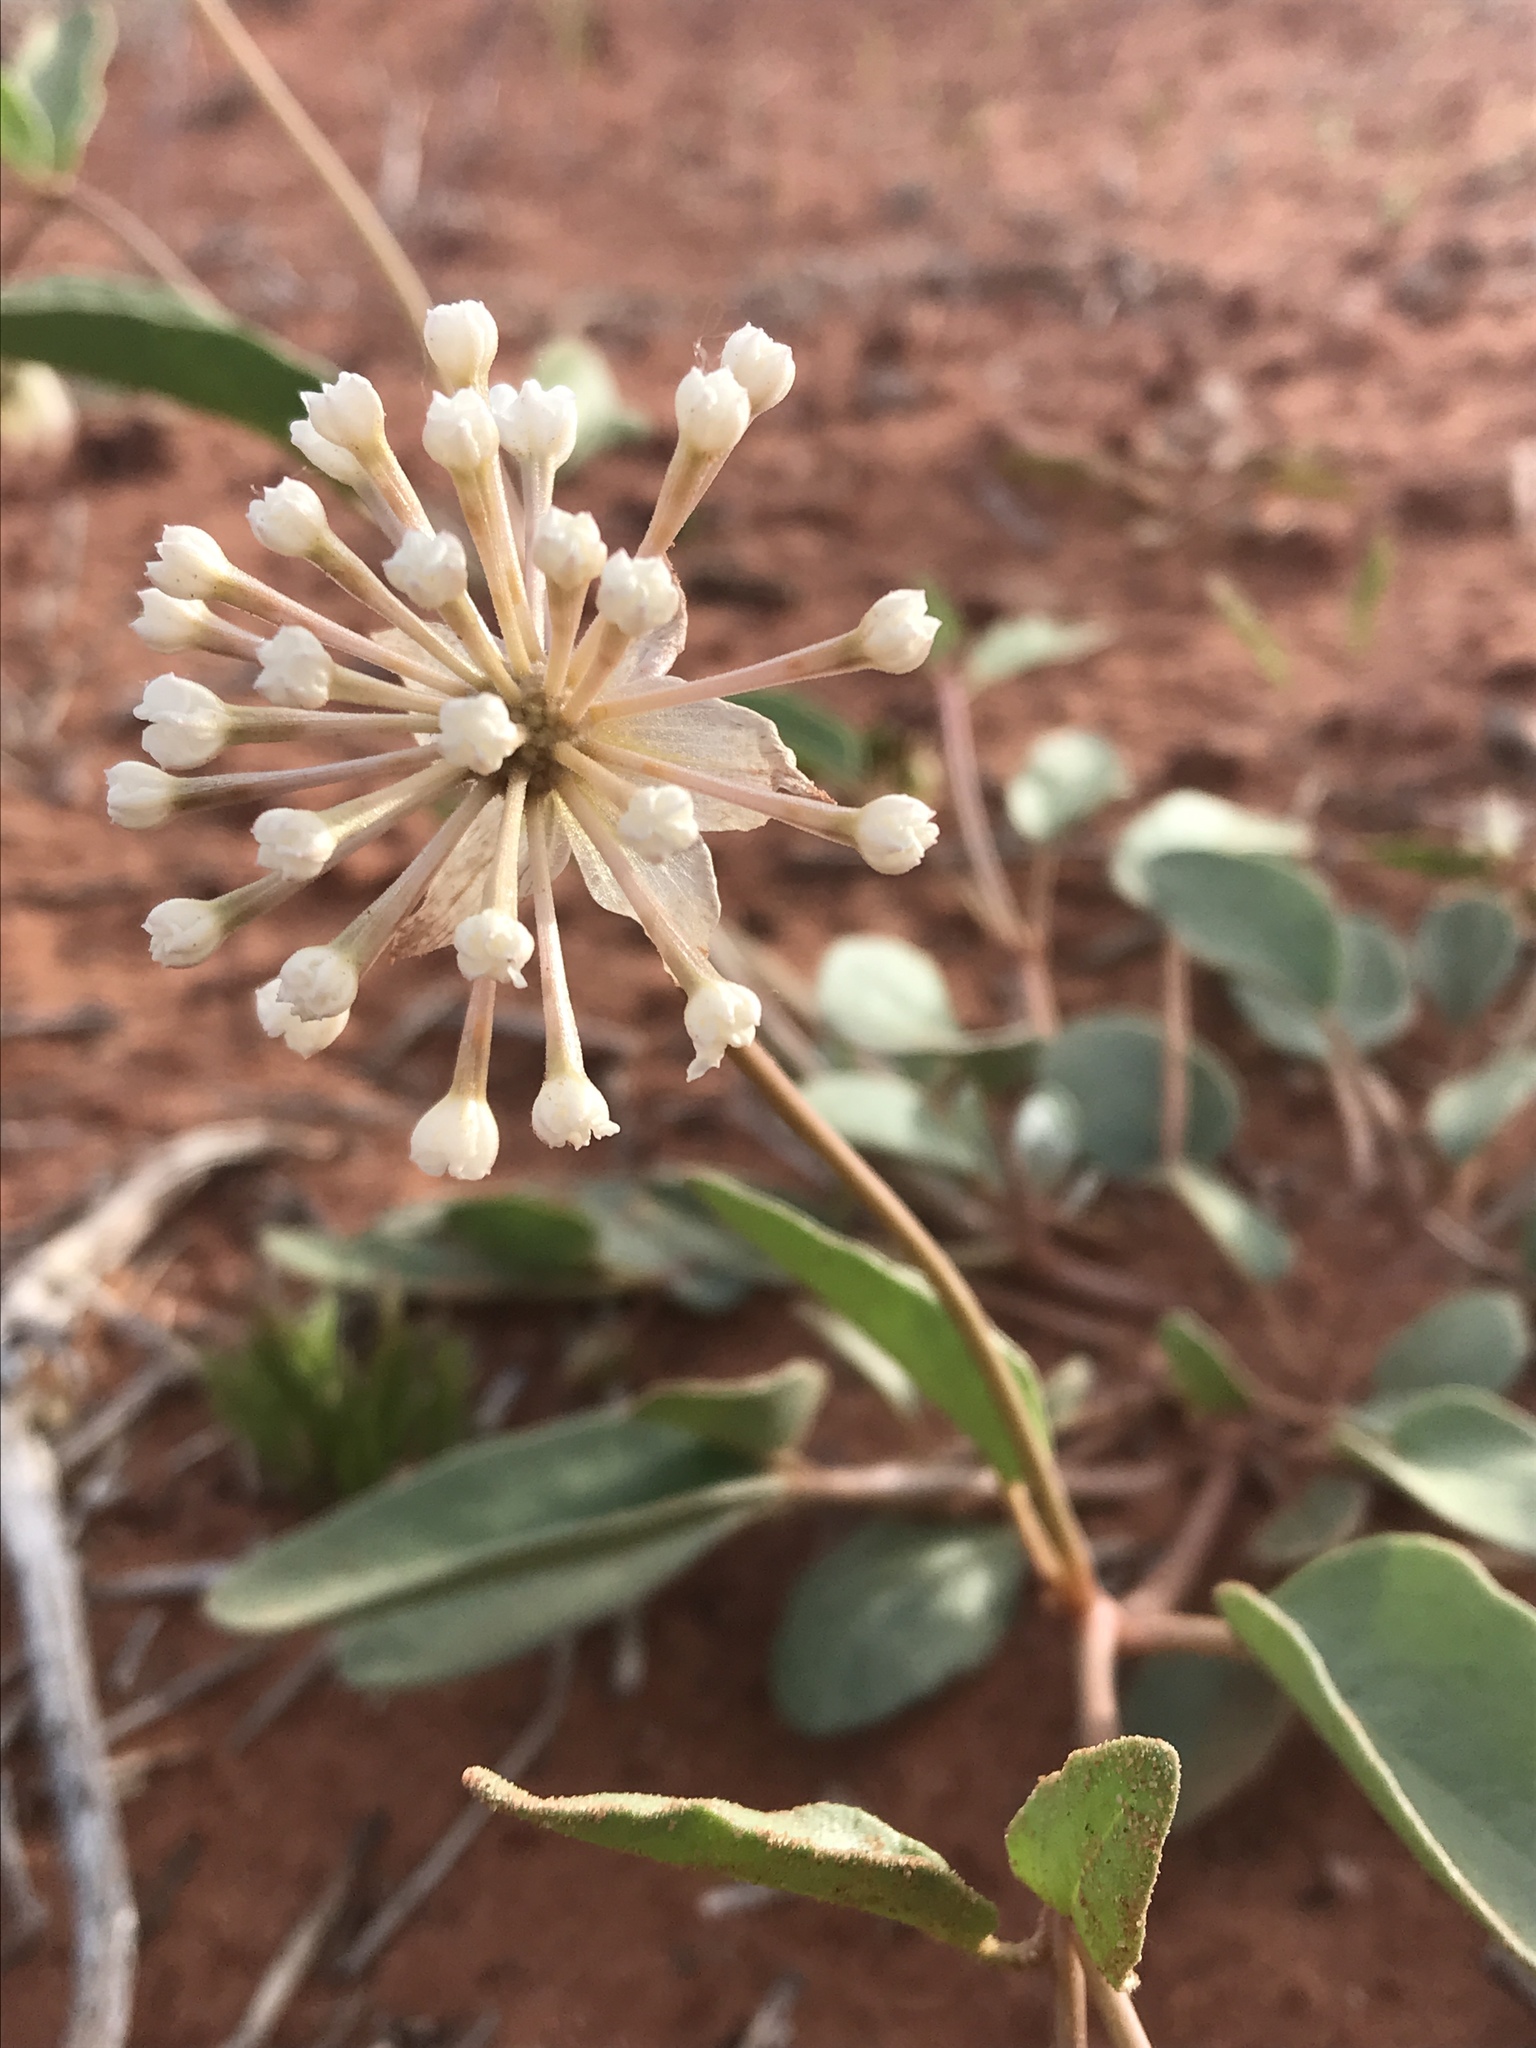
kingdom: Plantae
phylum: Tracheophyta
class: Magnoliopsida
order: Caryophyllales
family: Nyctaginaceae
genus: Abronia
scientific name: Abronia elliptica
